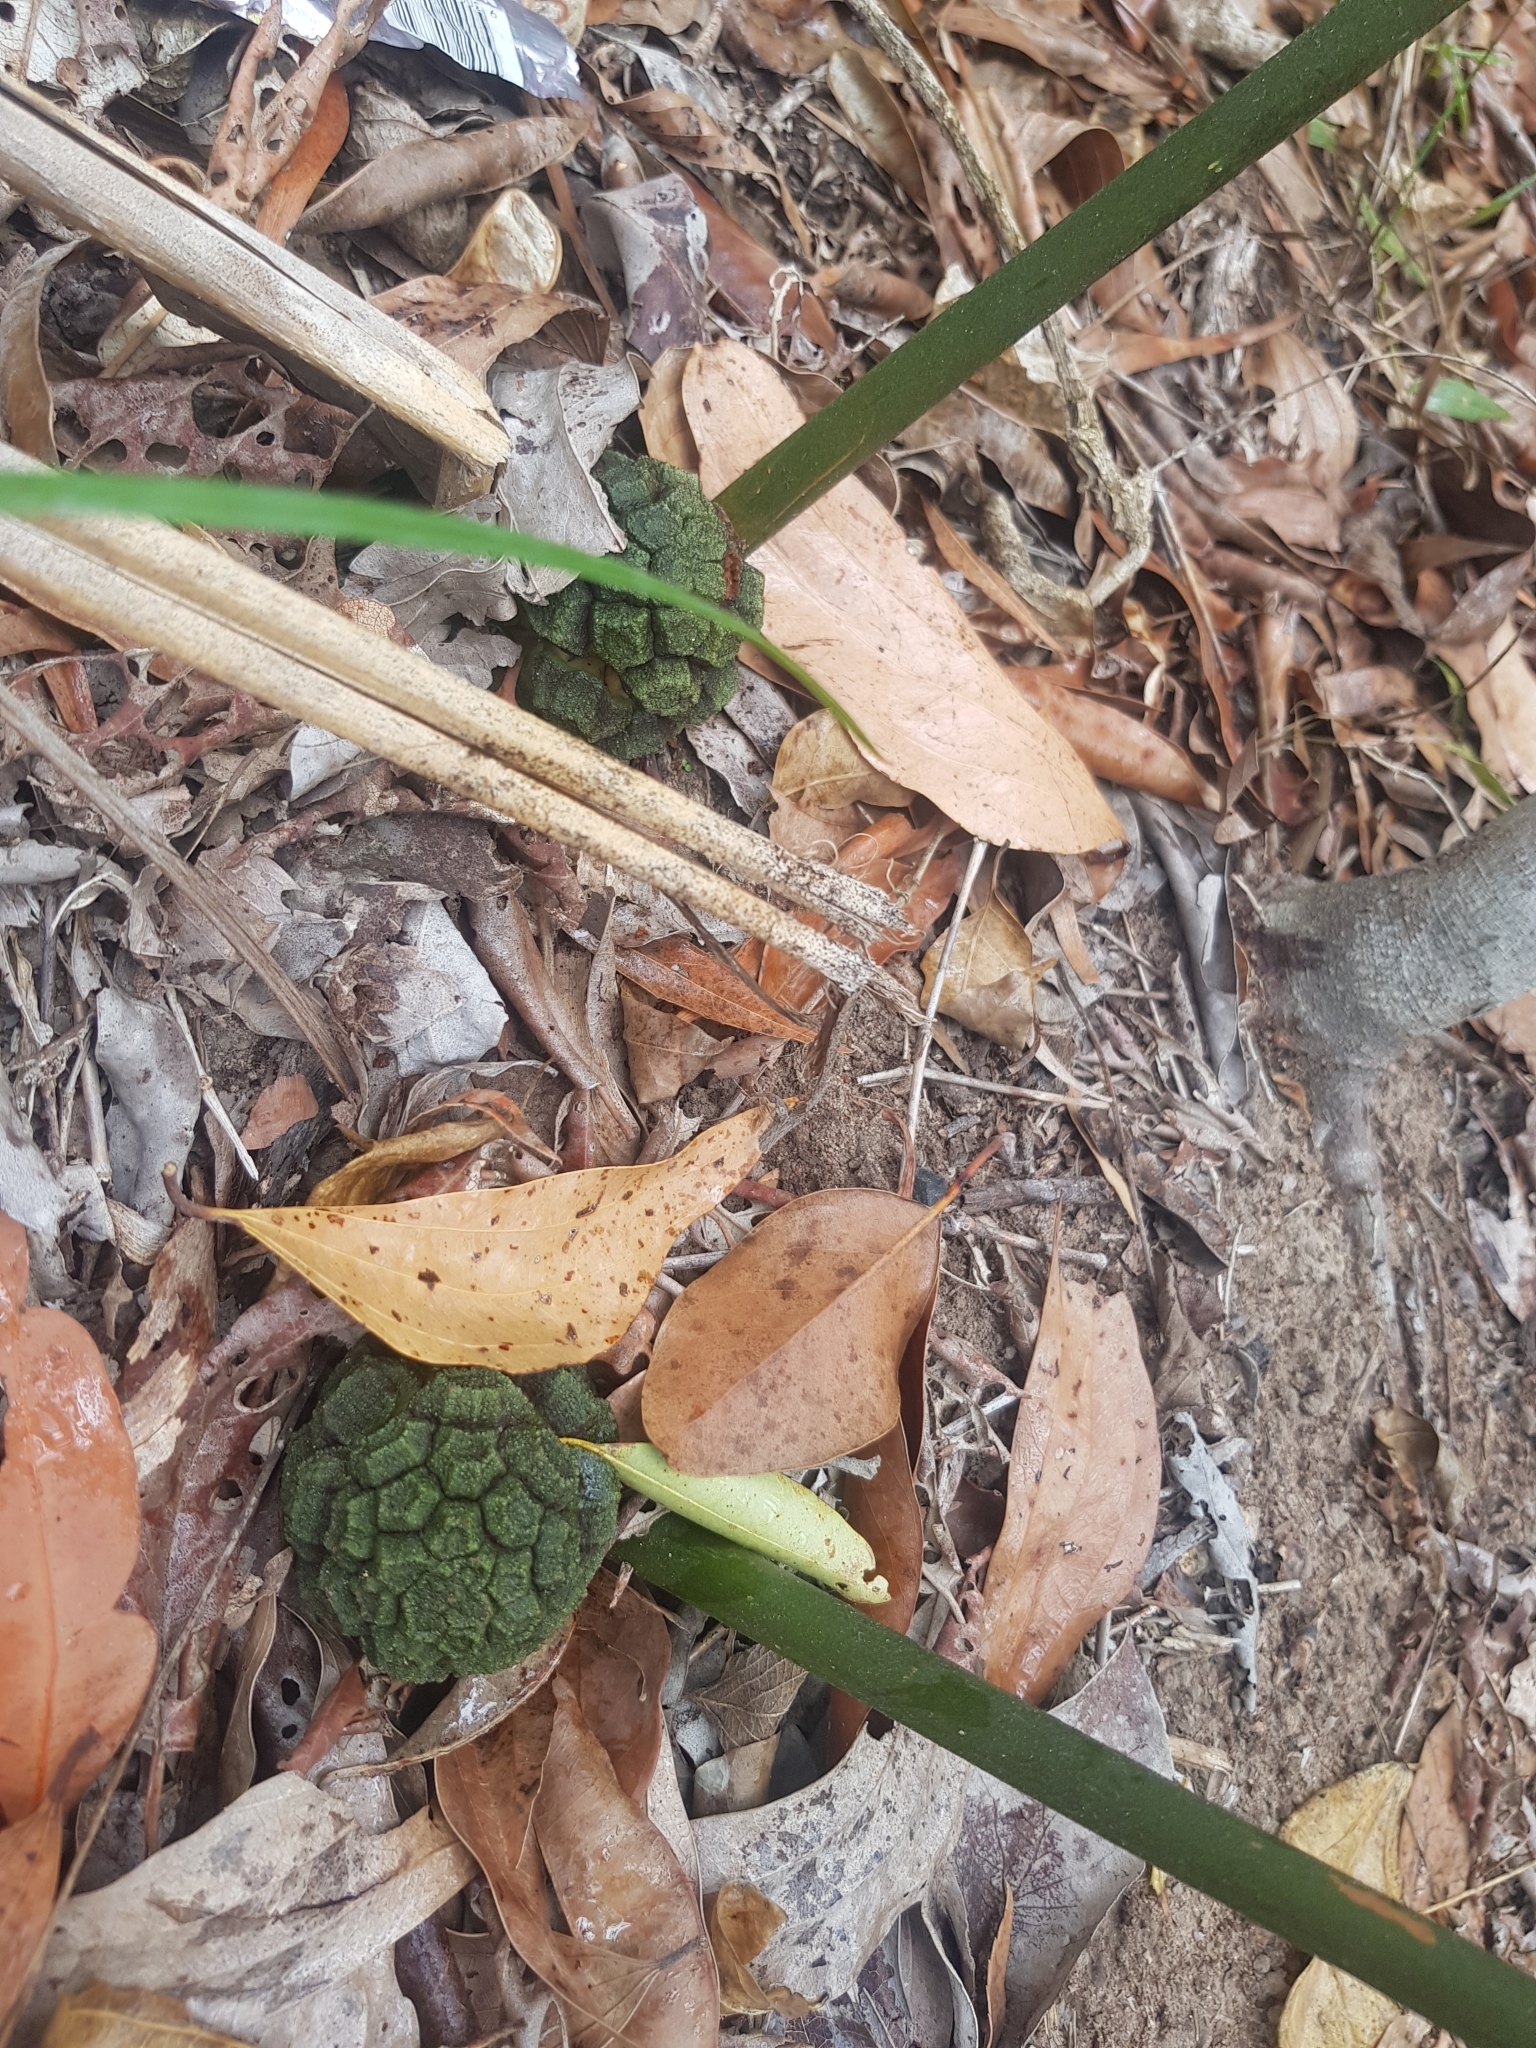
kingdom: Plantae
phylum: Tracheophyta
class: Cycadopsida
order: Cycadales
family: Zamiaceae
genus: Bowenia
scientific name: Bowenia serrulata
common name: Byfield fern
